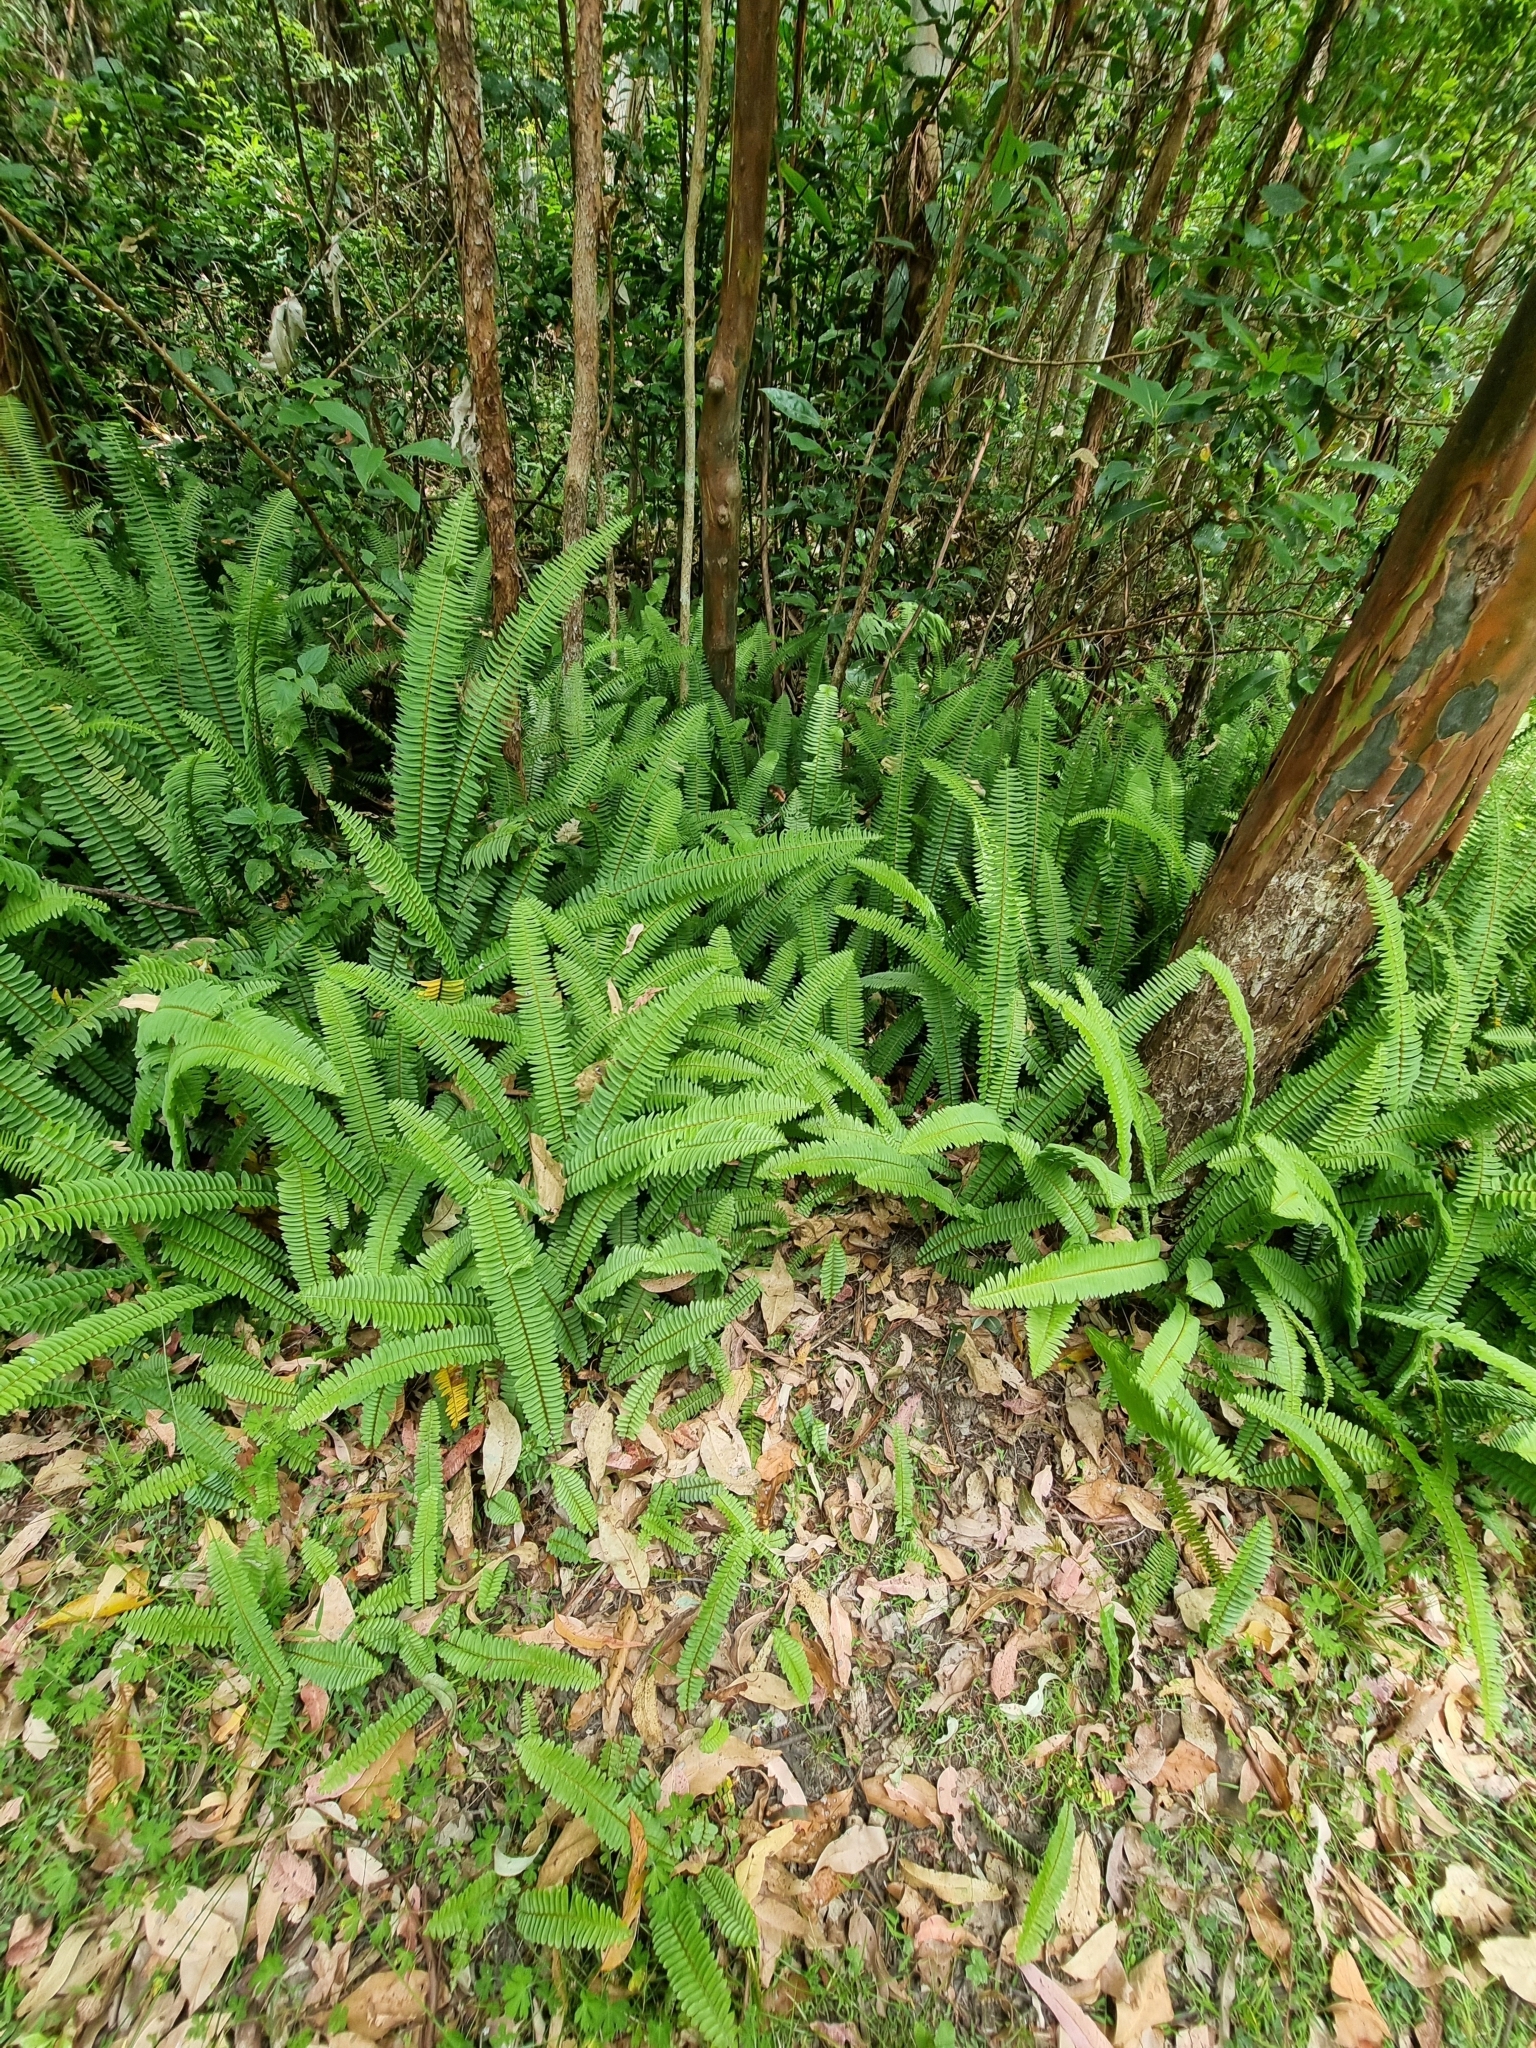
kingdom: Plantae
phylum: Tracheophyta
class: Polypodiopsida
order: Polypodiales
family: Nephrolepidaceae
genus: Nephrolepis
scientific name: Nephrolepis cordifolia
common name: Narrow swordfern
